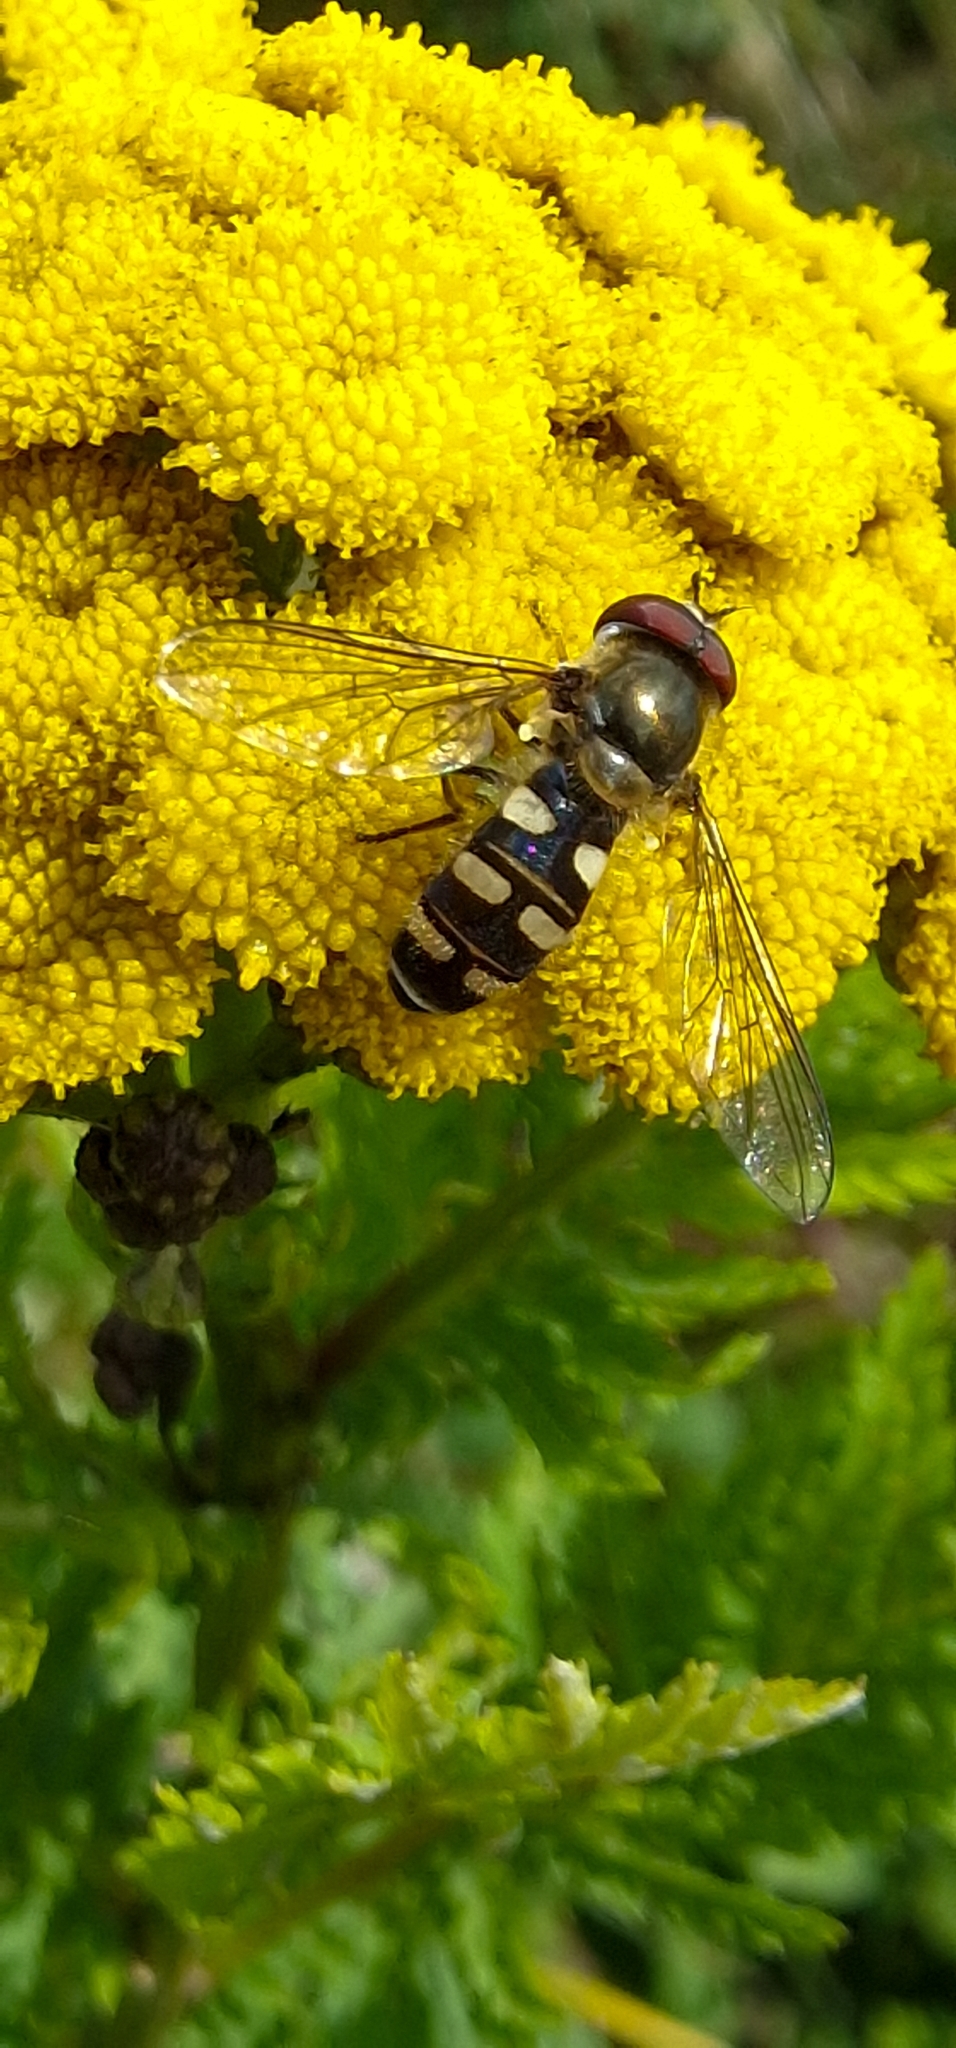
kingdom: Animalia
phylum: Arthropoda
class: Insecta
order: Diptera
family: Syrphidae
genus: Melangyna
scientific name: Melangyna
